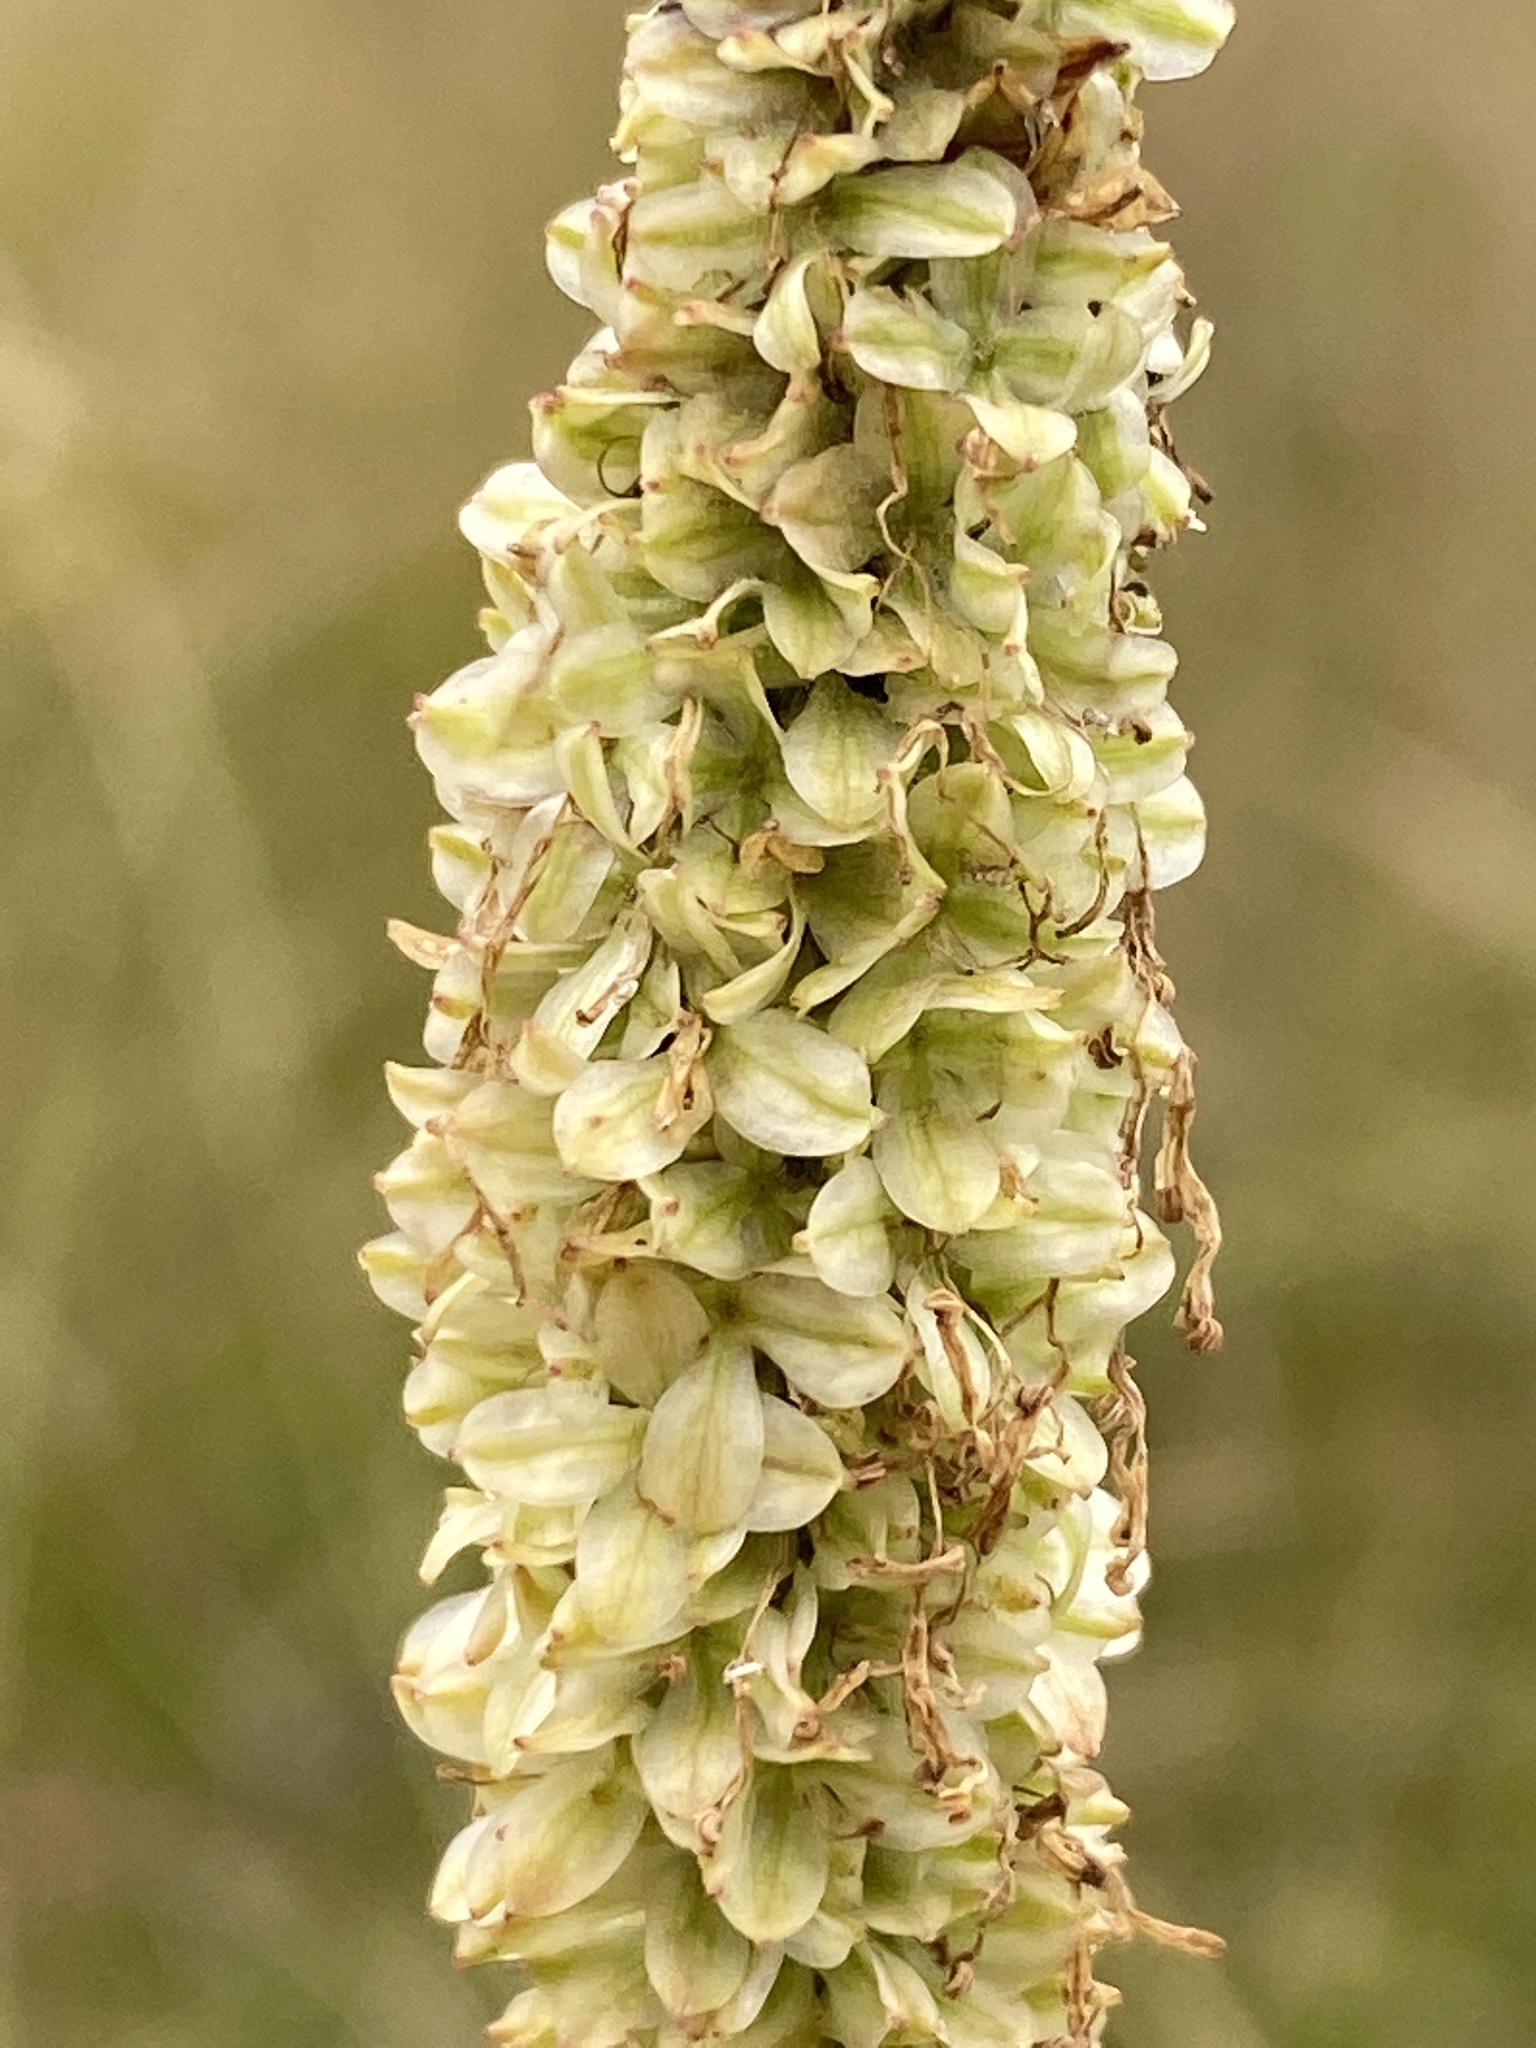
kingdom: Plantae
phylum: Tracheophyta
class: Magnoliopsida
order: Rosales
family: Rosaceae
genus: Sanguisorba
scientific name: Sanguisorba canadensis
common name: White burnet
